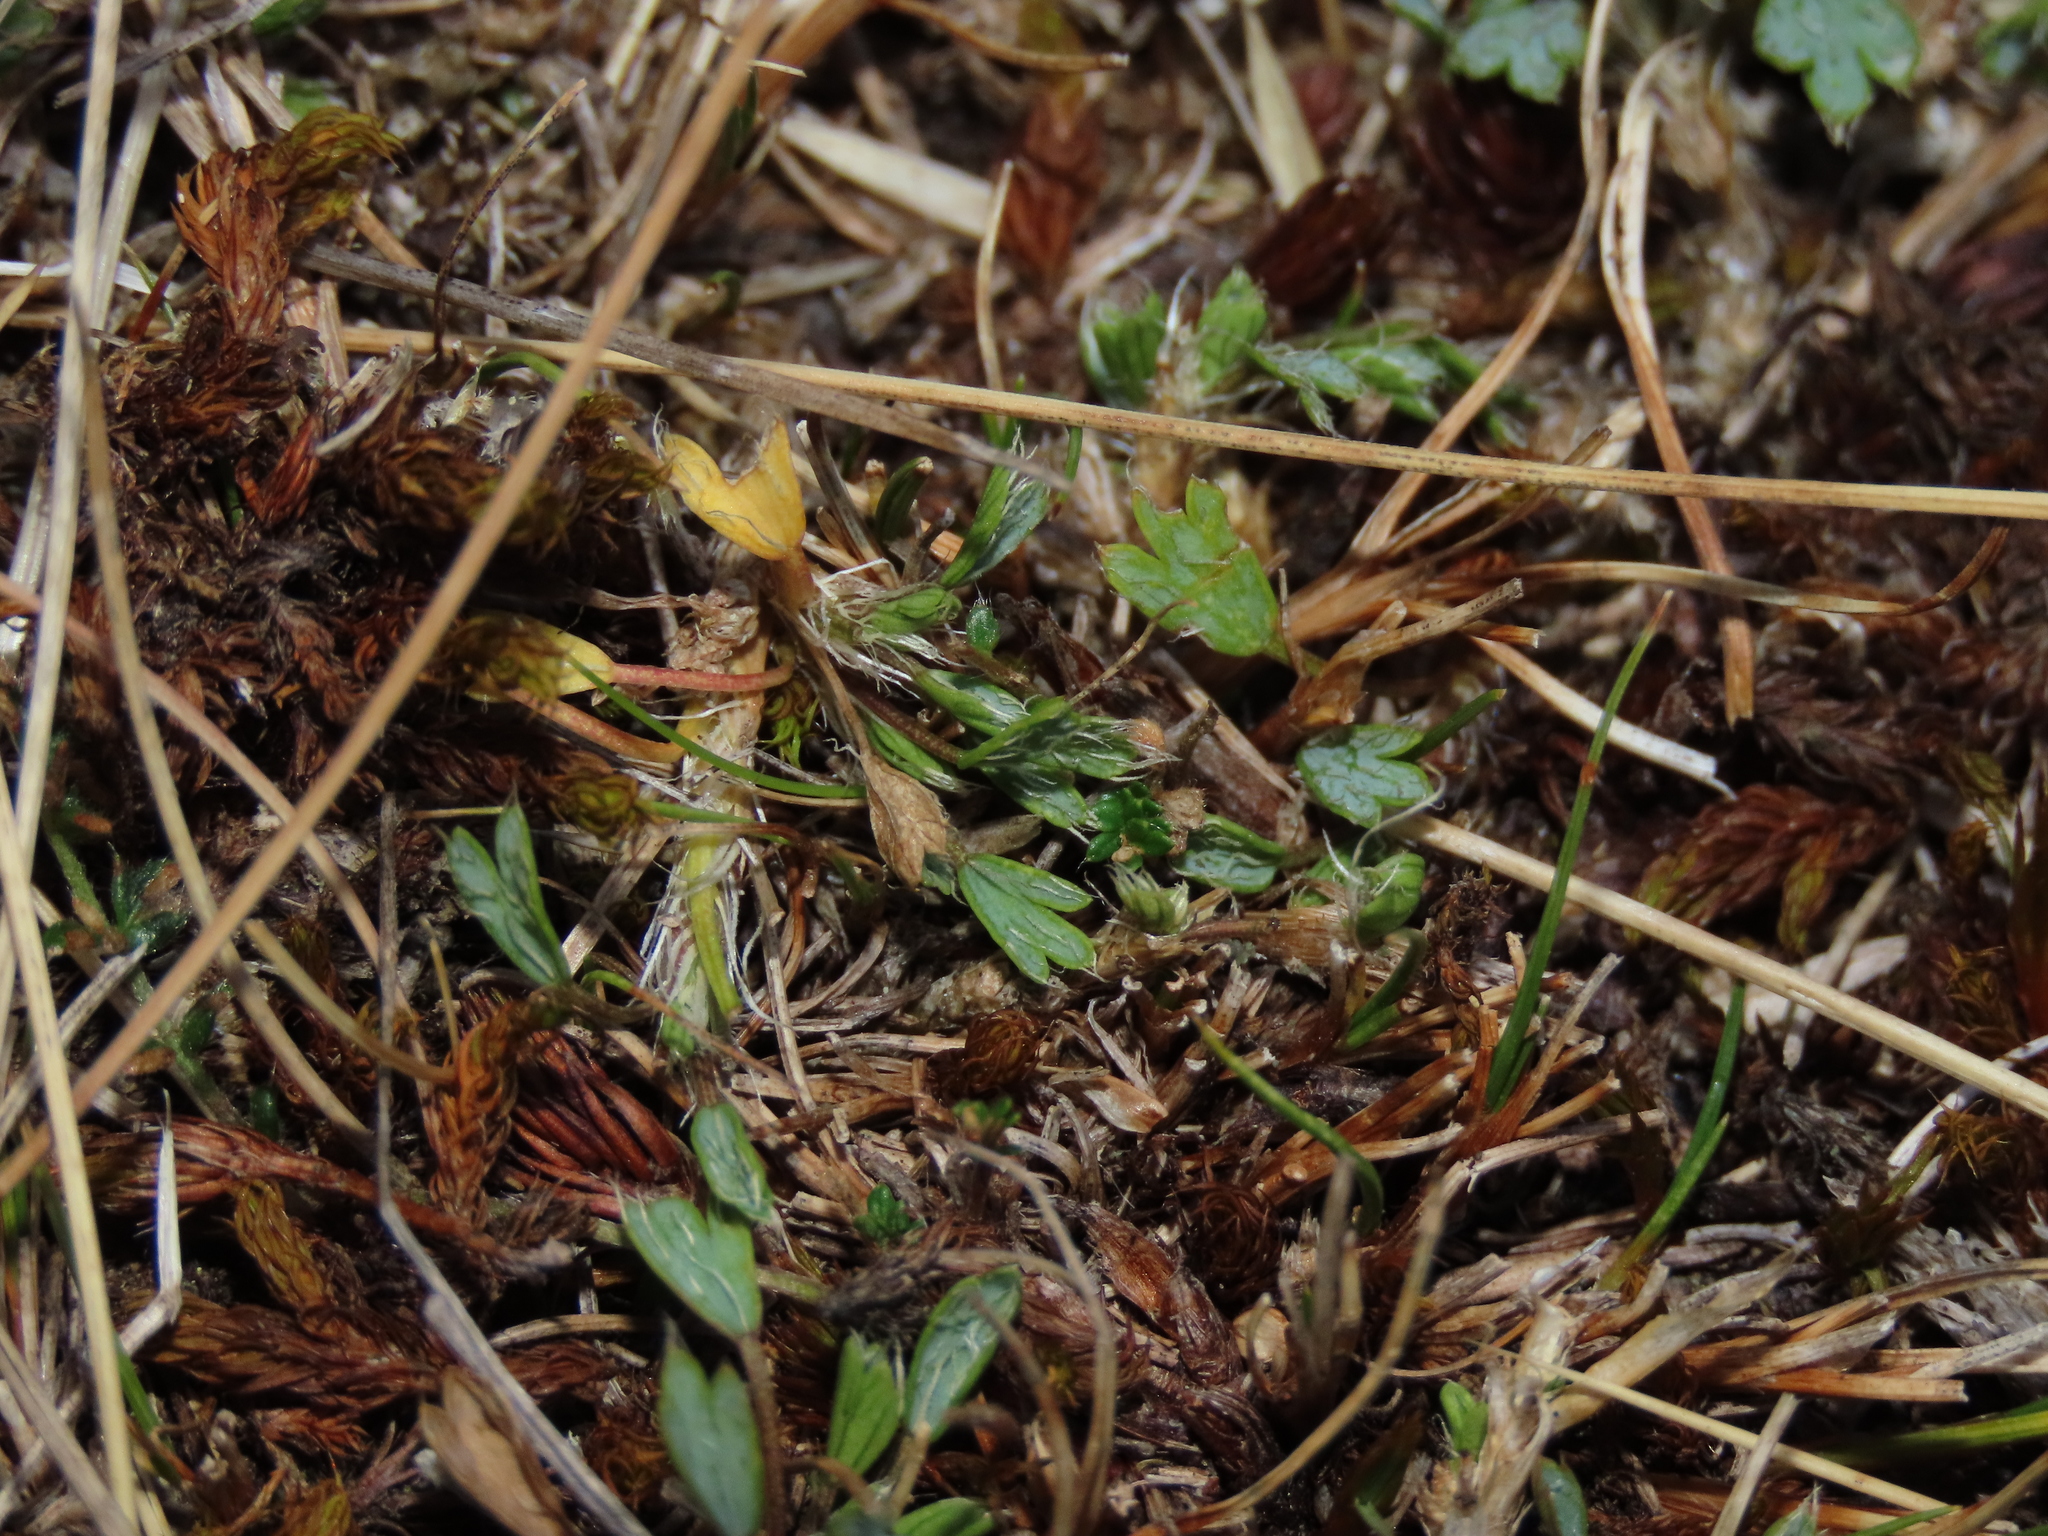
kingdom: Plantae
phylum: Tracheophyta
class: Magnoliopsida
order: Apiales
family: Apiaceae
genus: Azorella
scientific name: Azorella fuegiana
